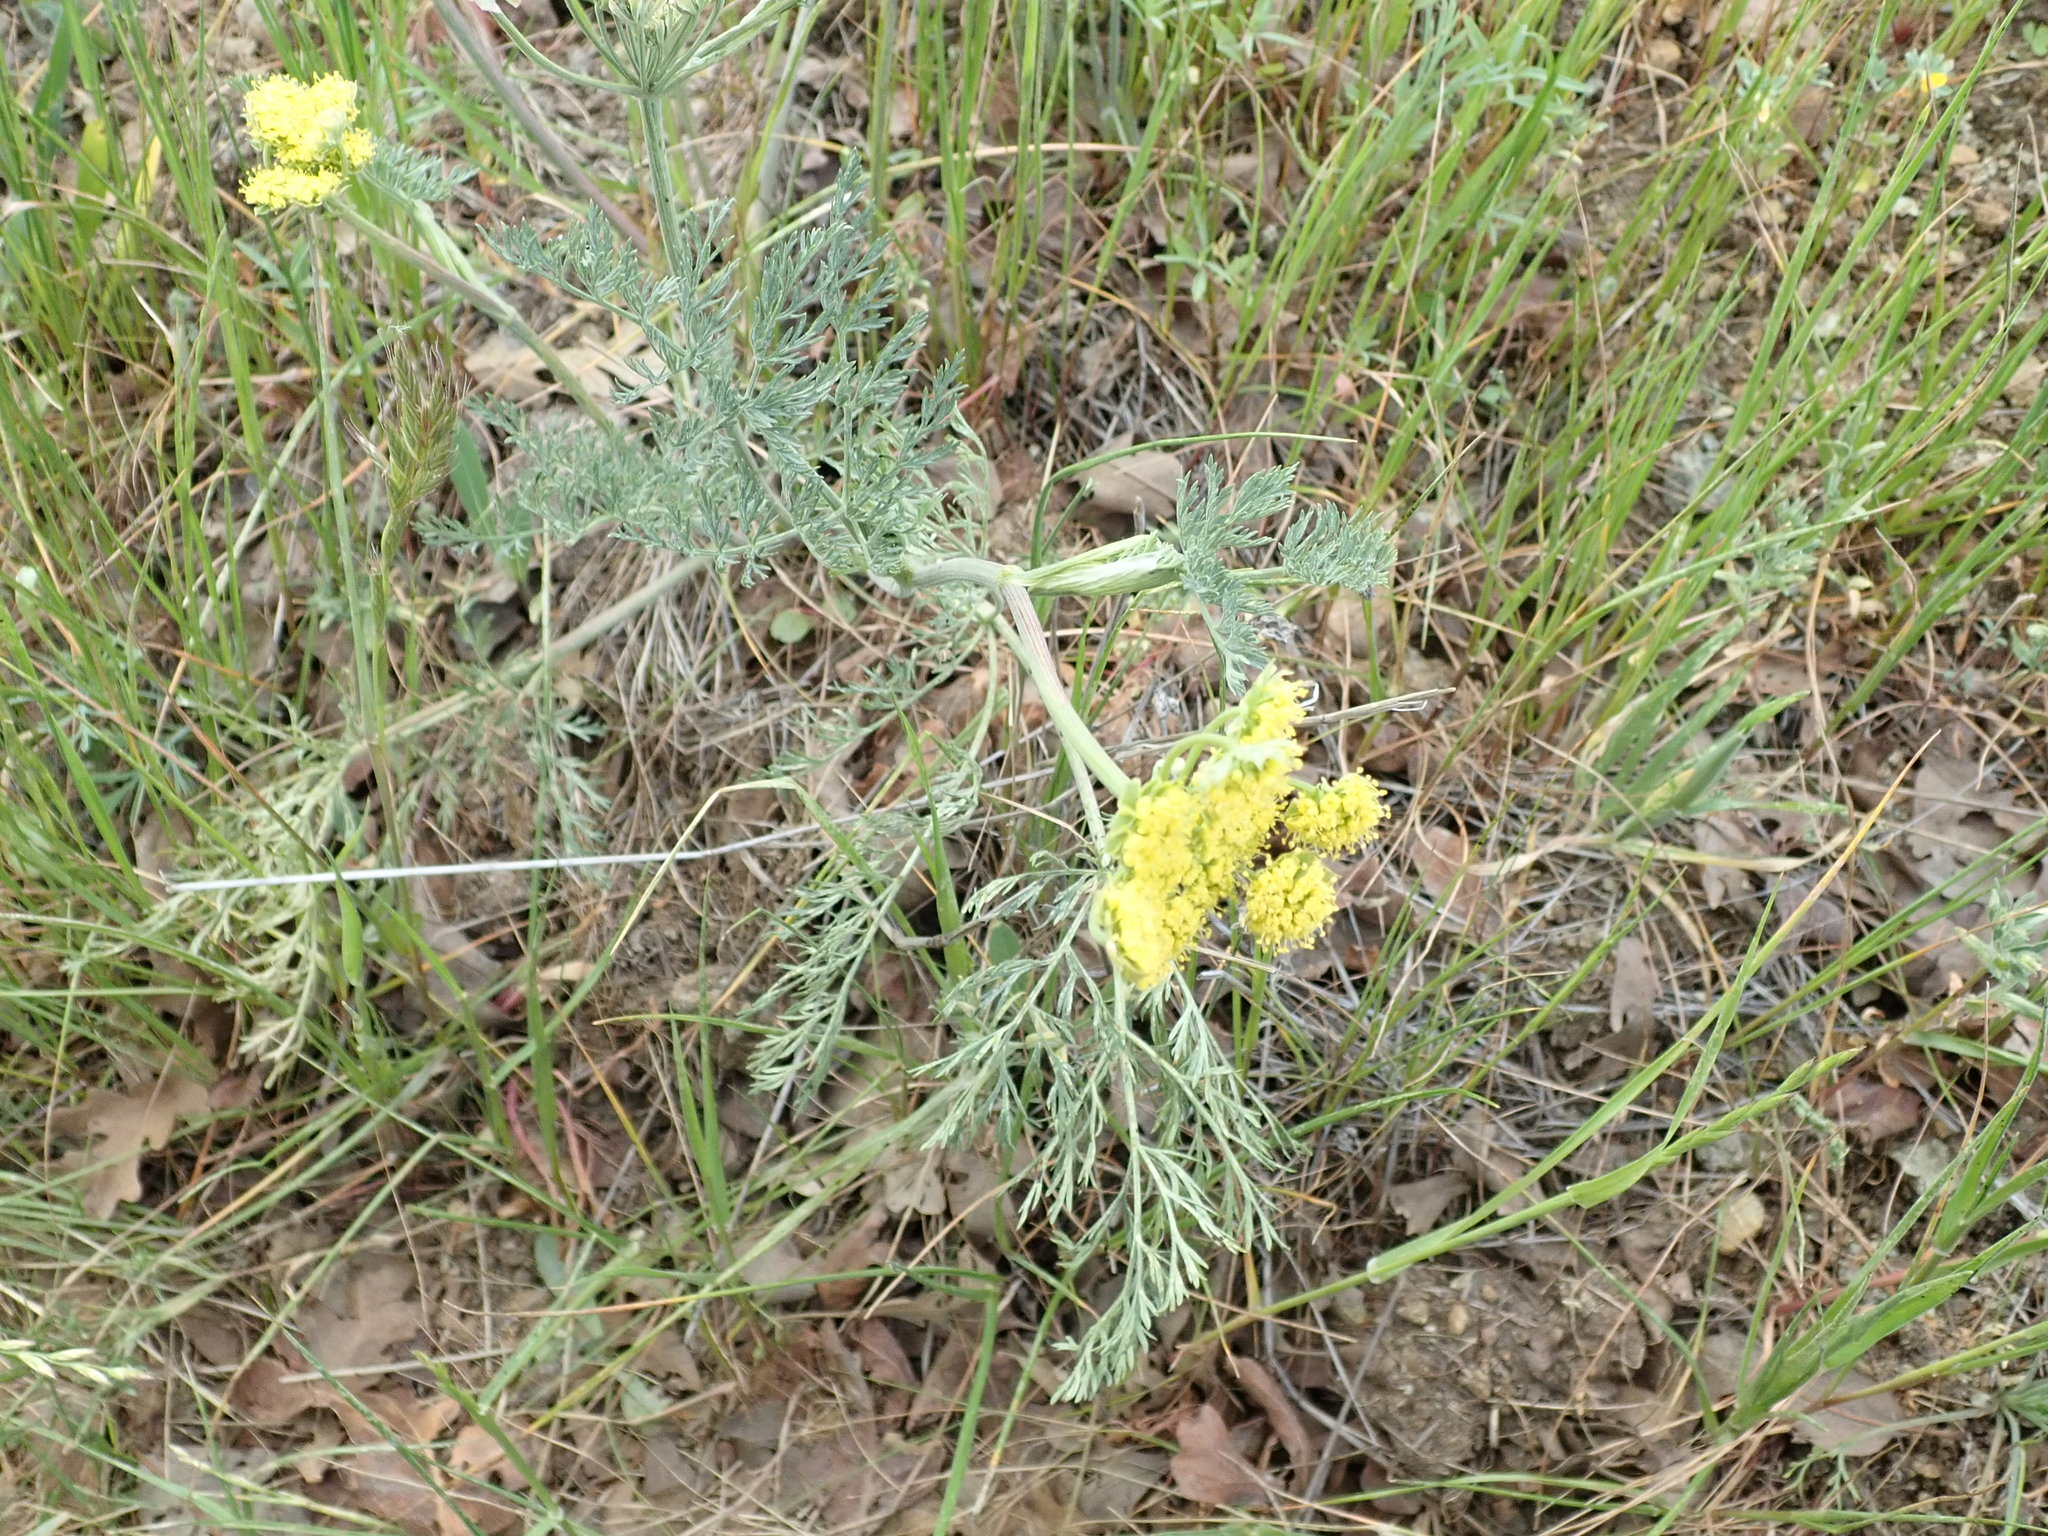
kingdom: Plantae
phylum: Tracheophyta
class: Magnoliopsida
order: Apiales
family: Apiaceae
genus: Lomatium
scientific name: Lomatium utriculatum
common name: Fine-leaf desert-parsley
